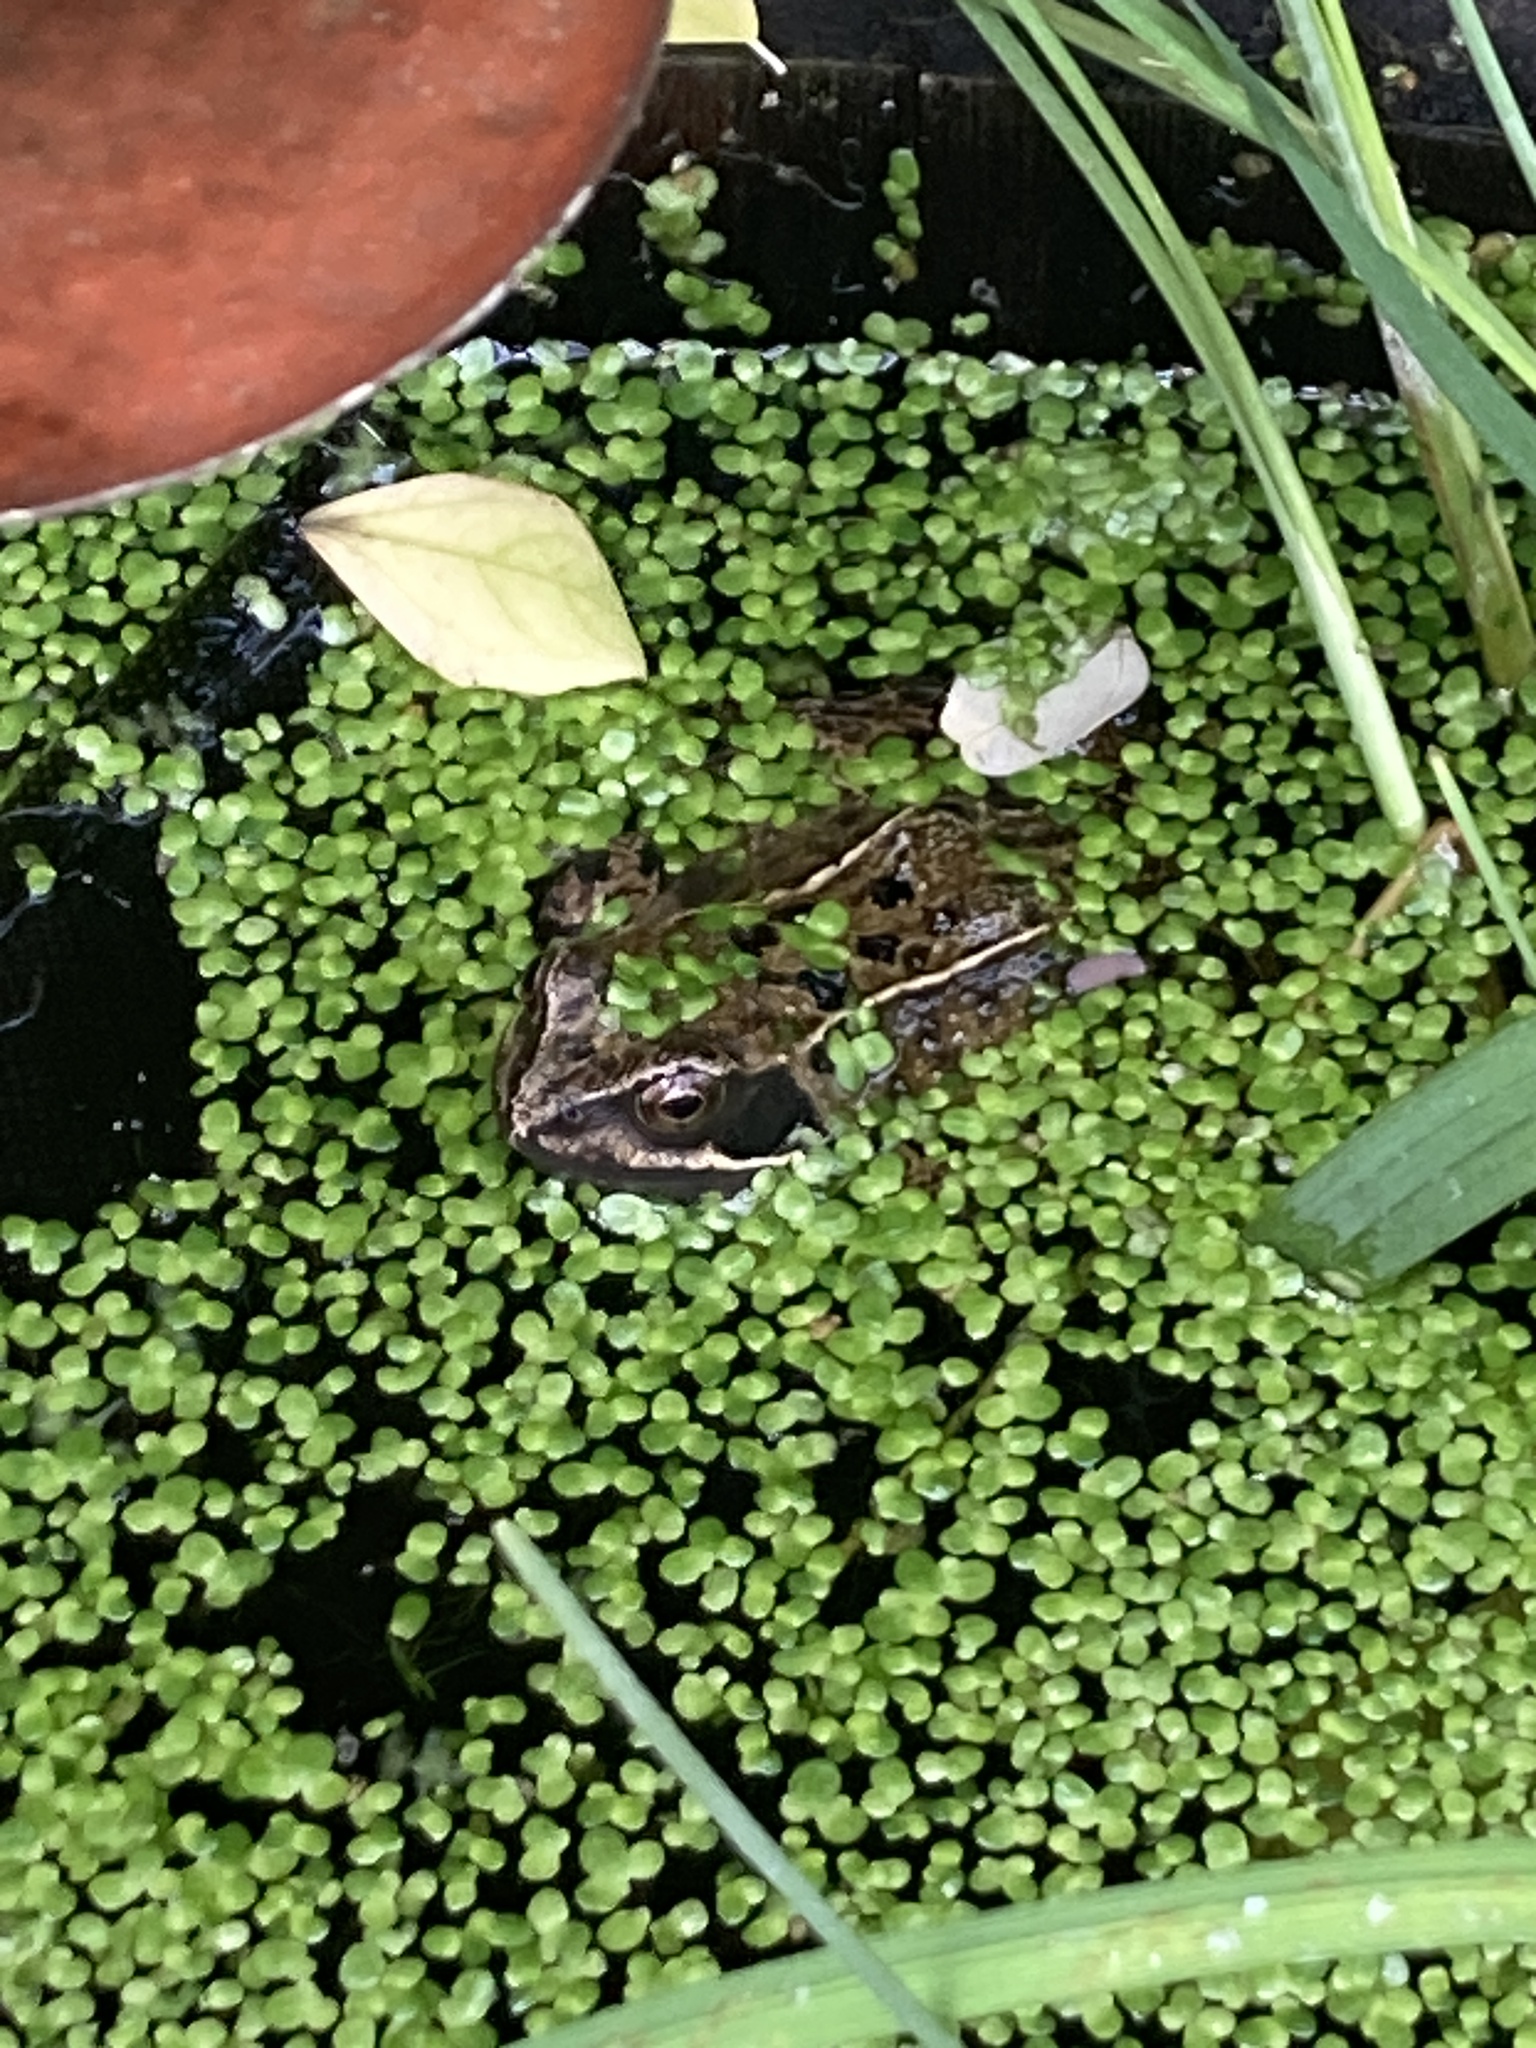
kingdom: Animalia
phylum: Chordata
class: Amphibia
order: Anura
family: Ranidae
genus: Rana
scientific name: Rana temporaria
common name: Common frog
